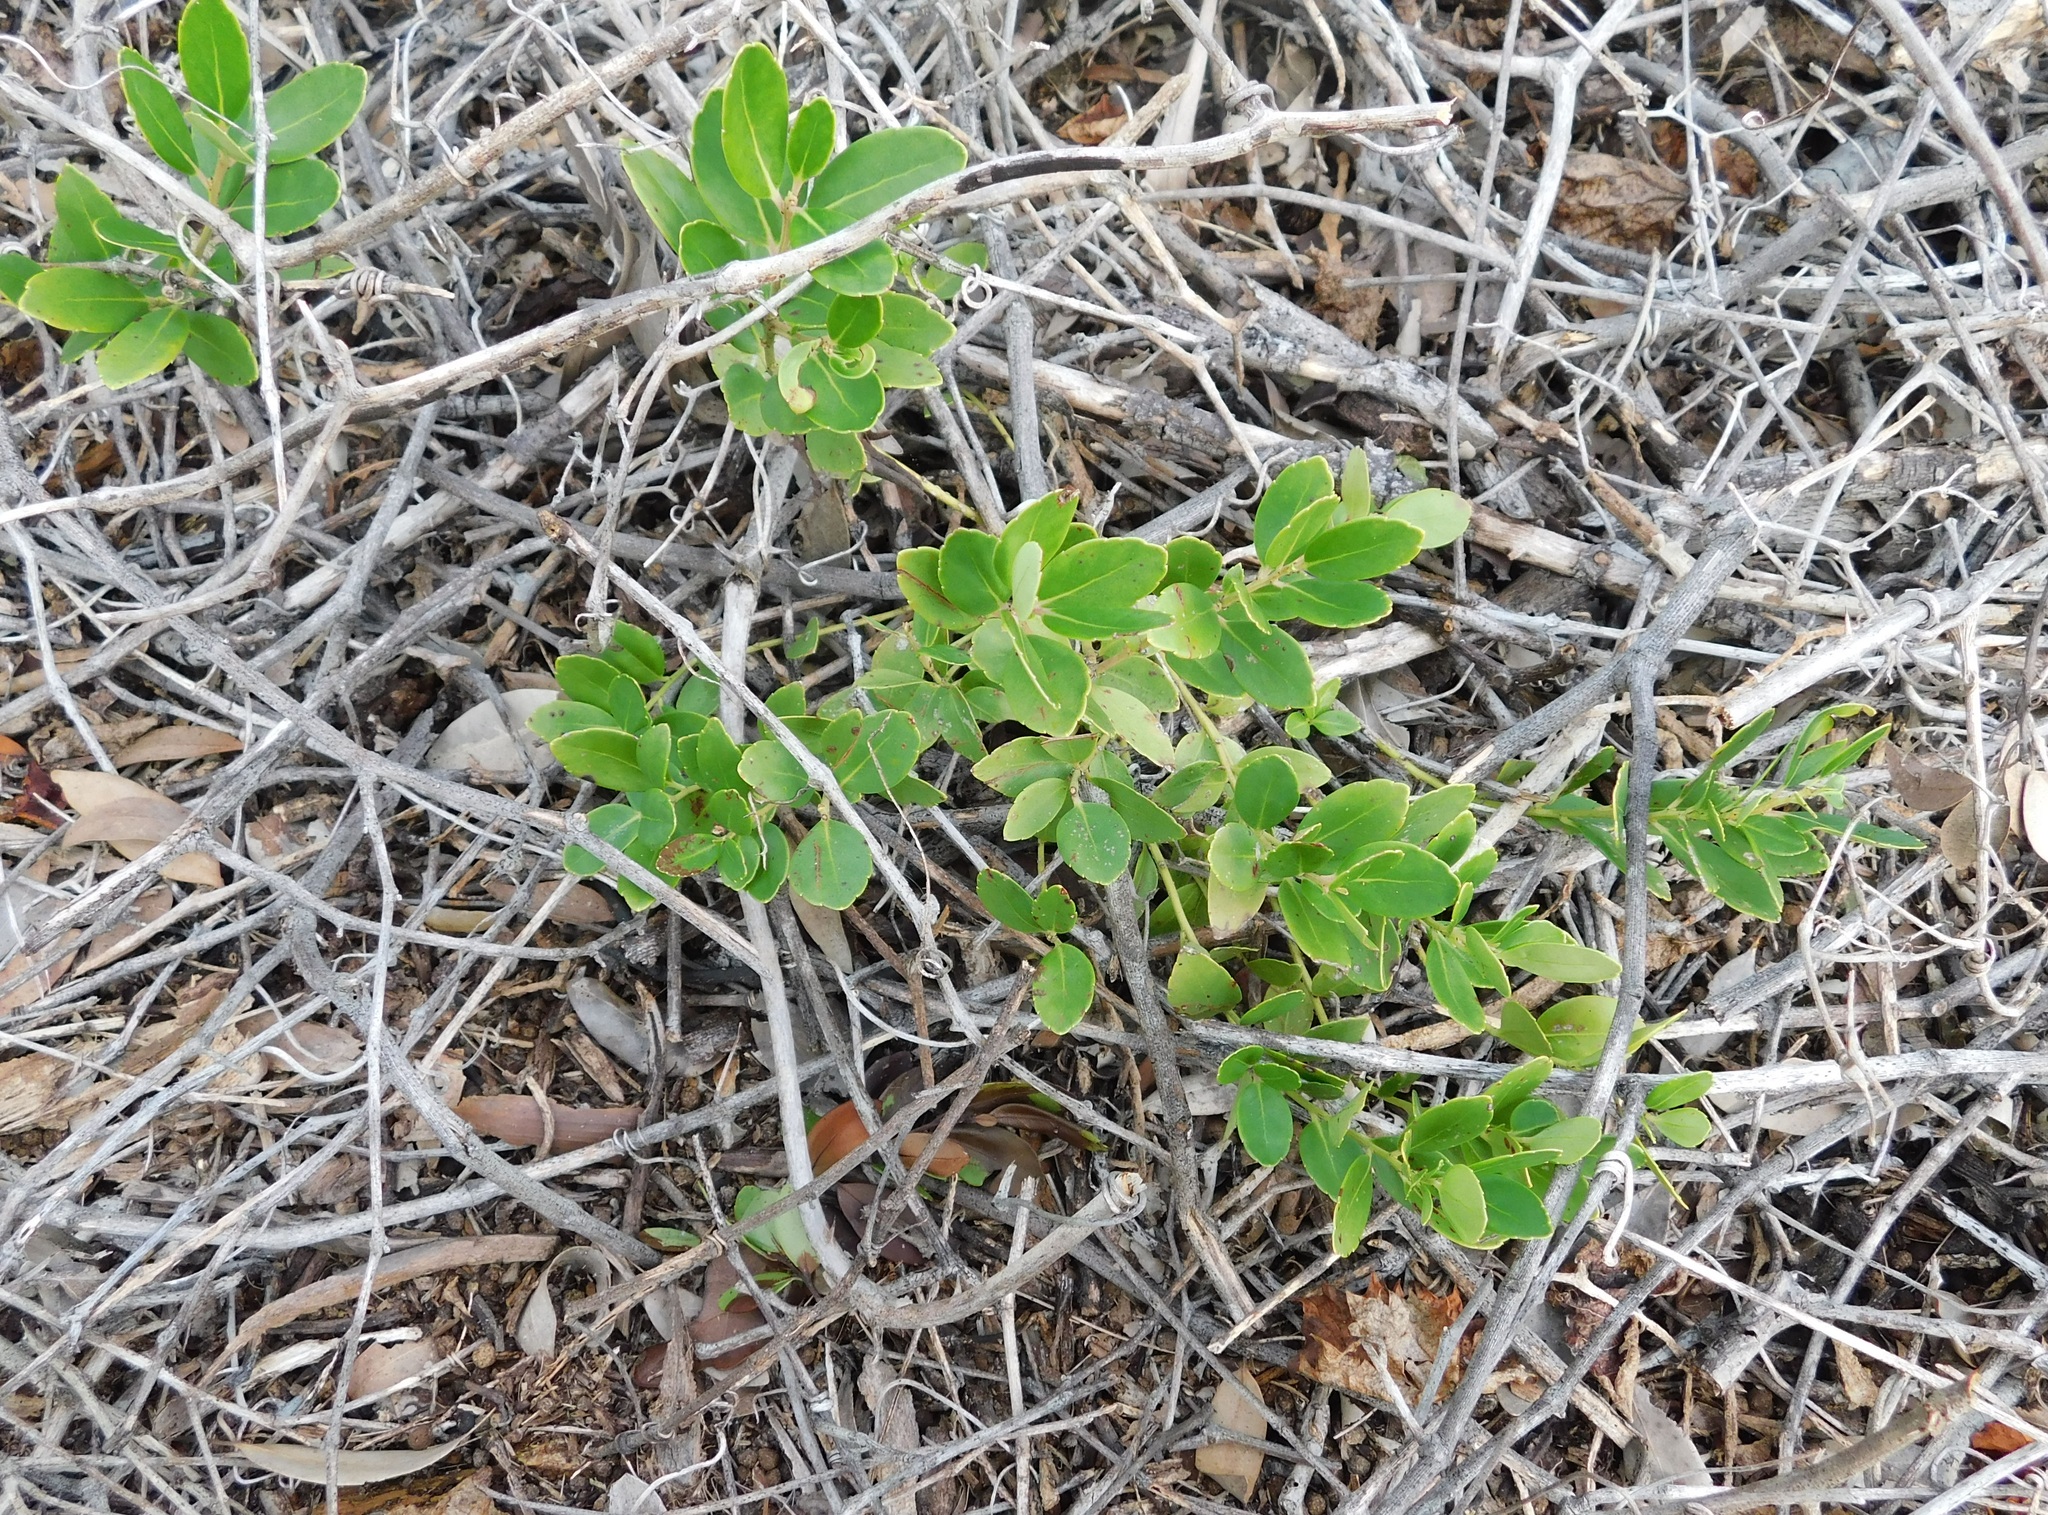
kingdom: Plantae
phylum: Tracheophyta
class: Magnoliopsida
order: Aquifoliales
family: Aquifoliaceae
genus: Ilex
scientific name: Ilex glabra
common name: Bitter gallberry
